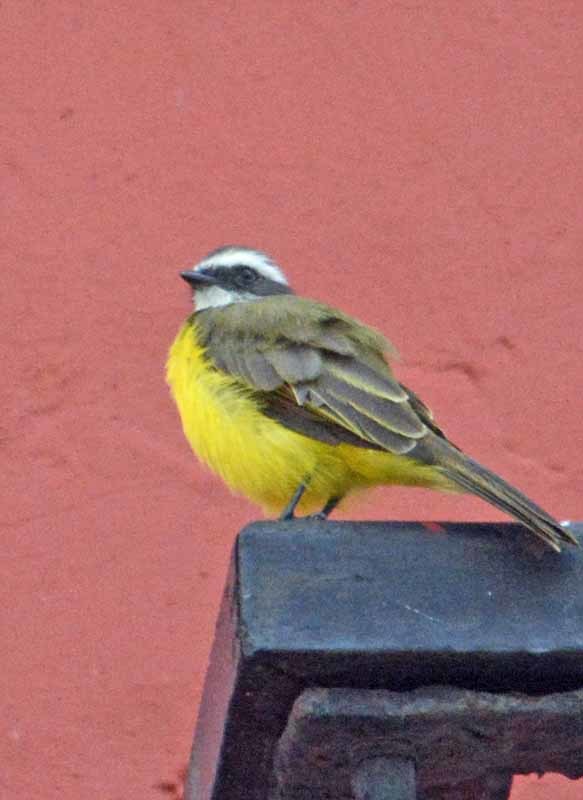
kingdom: Animalia
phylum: Chordata
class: Aves
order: Passeriformes
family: Tyrannidae
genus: Myiozetetes
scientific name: Myiozetetes similis
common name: Social flycatcher
